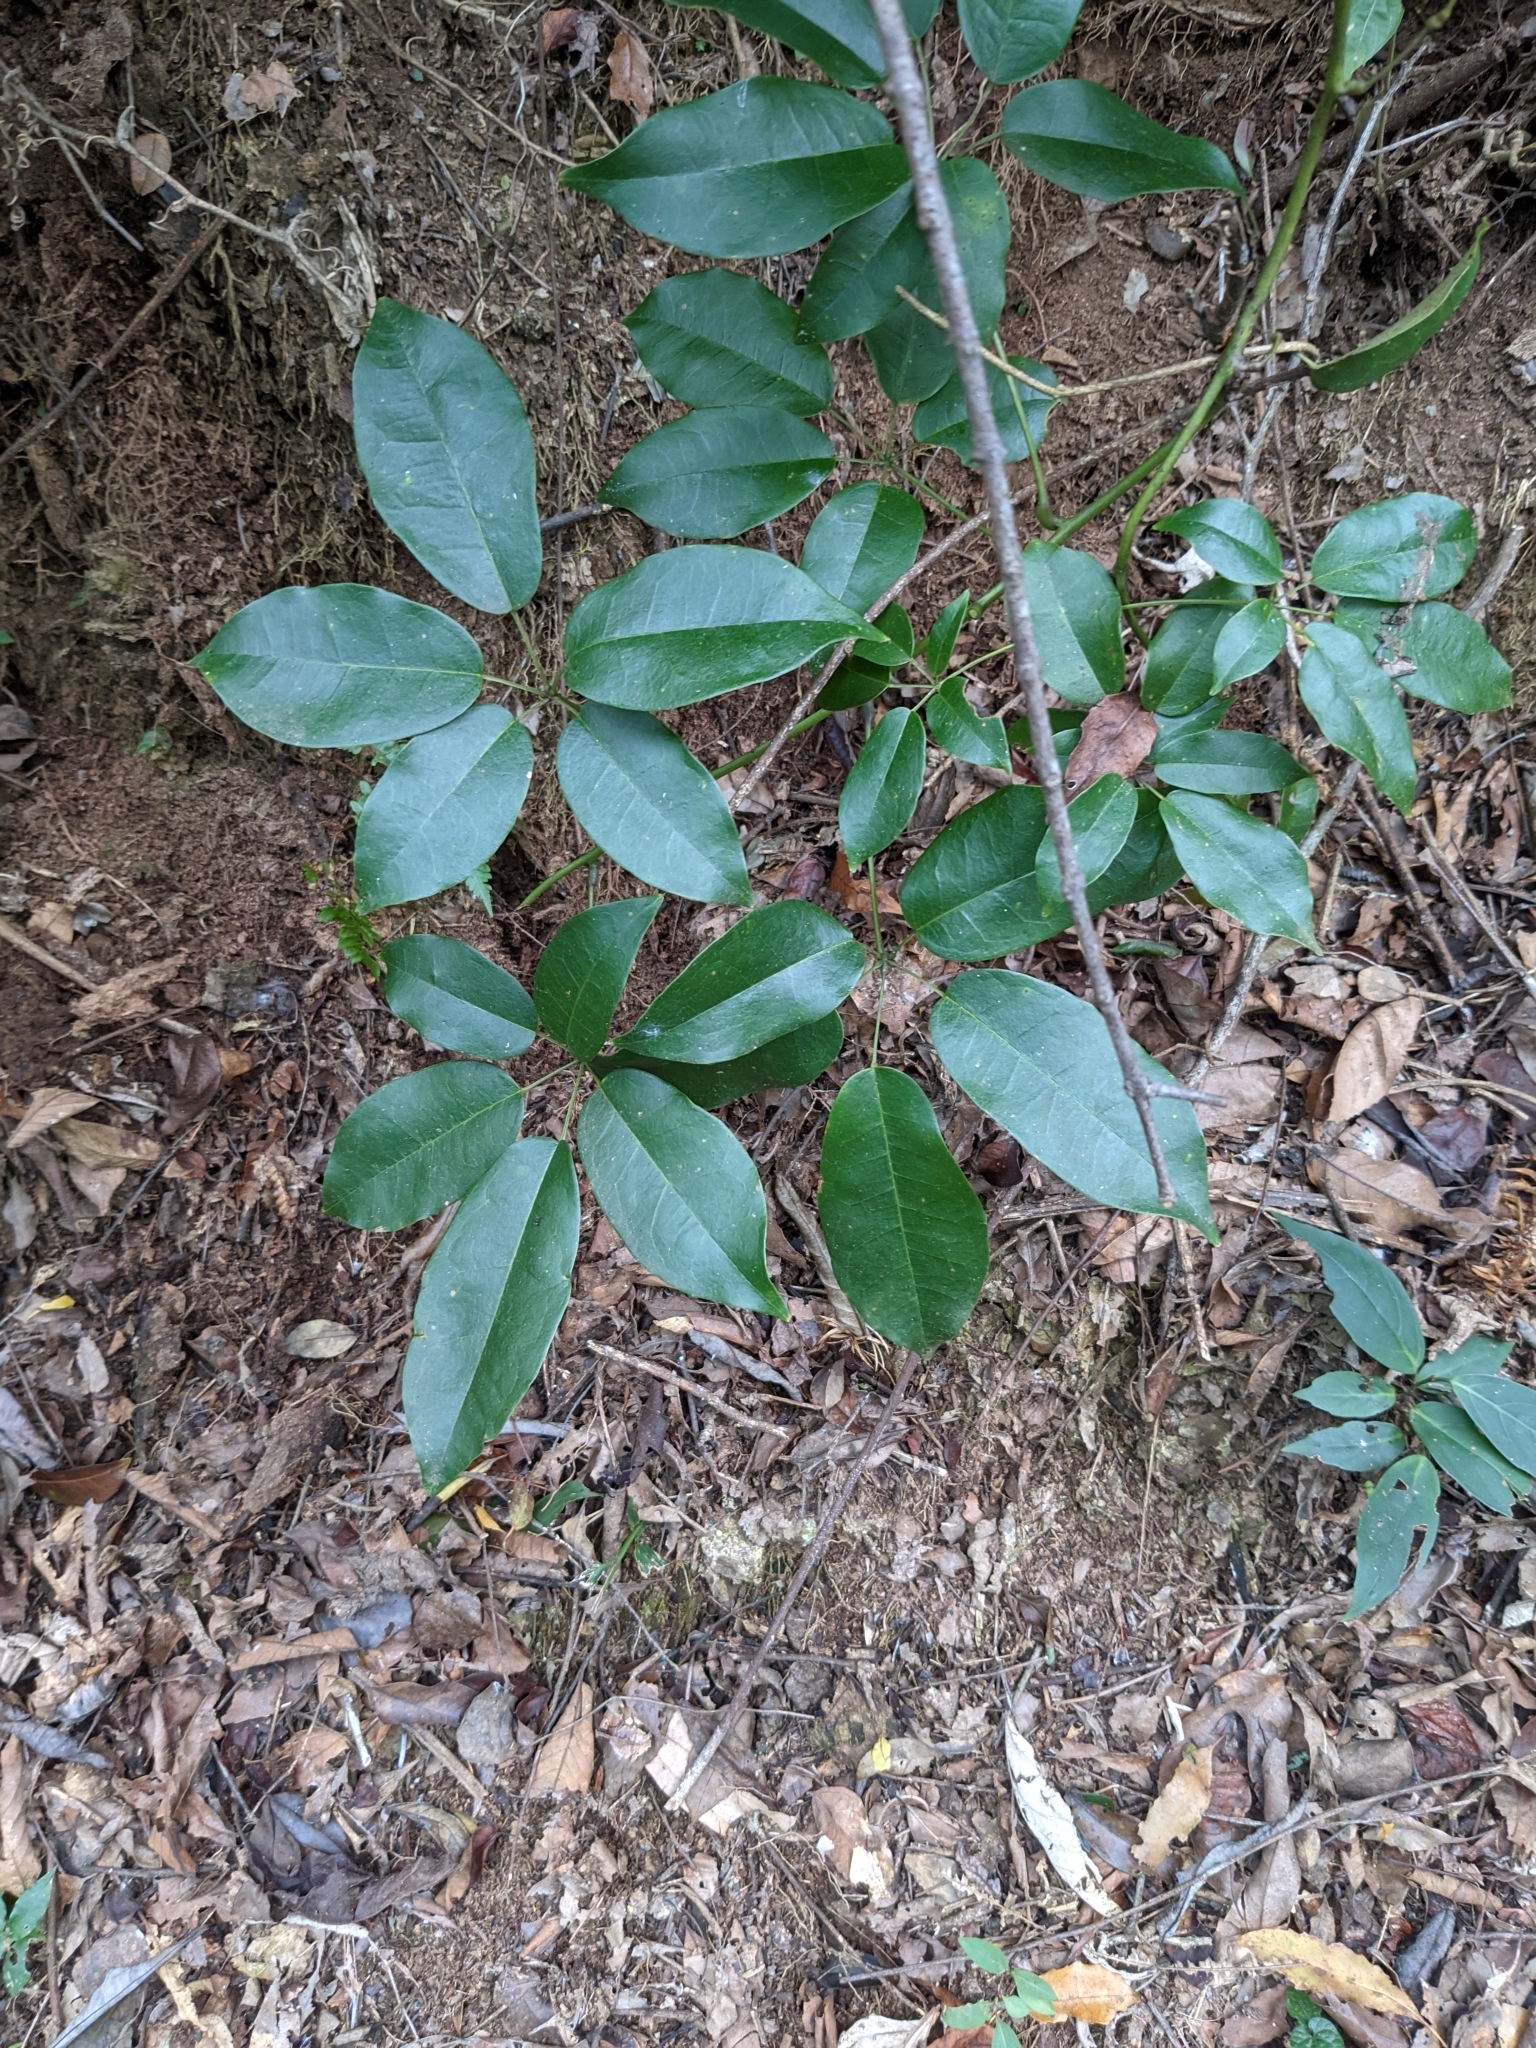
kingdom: Plantae
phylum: Tracheophyta
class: Magnoliopsida
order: Ranunculales
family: Lardizabalaceae
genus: Stauntonia
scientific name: Stauntonia obovatifoliola
